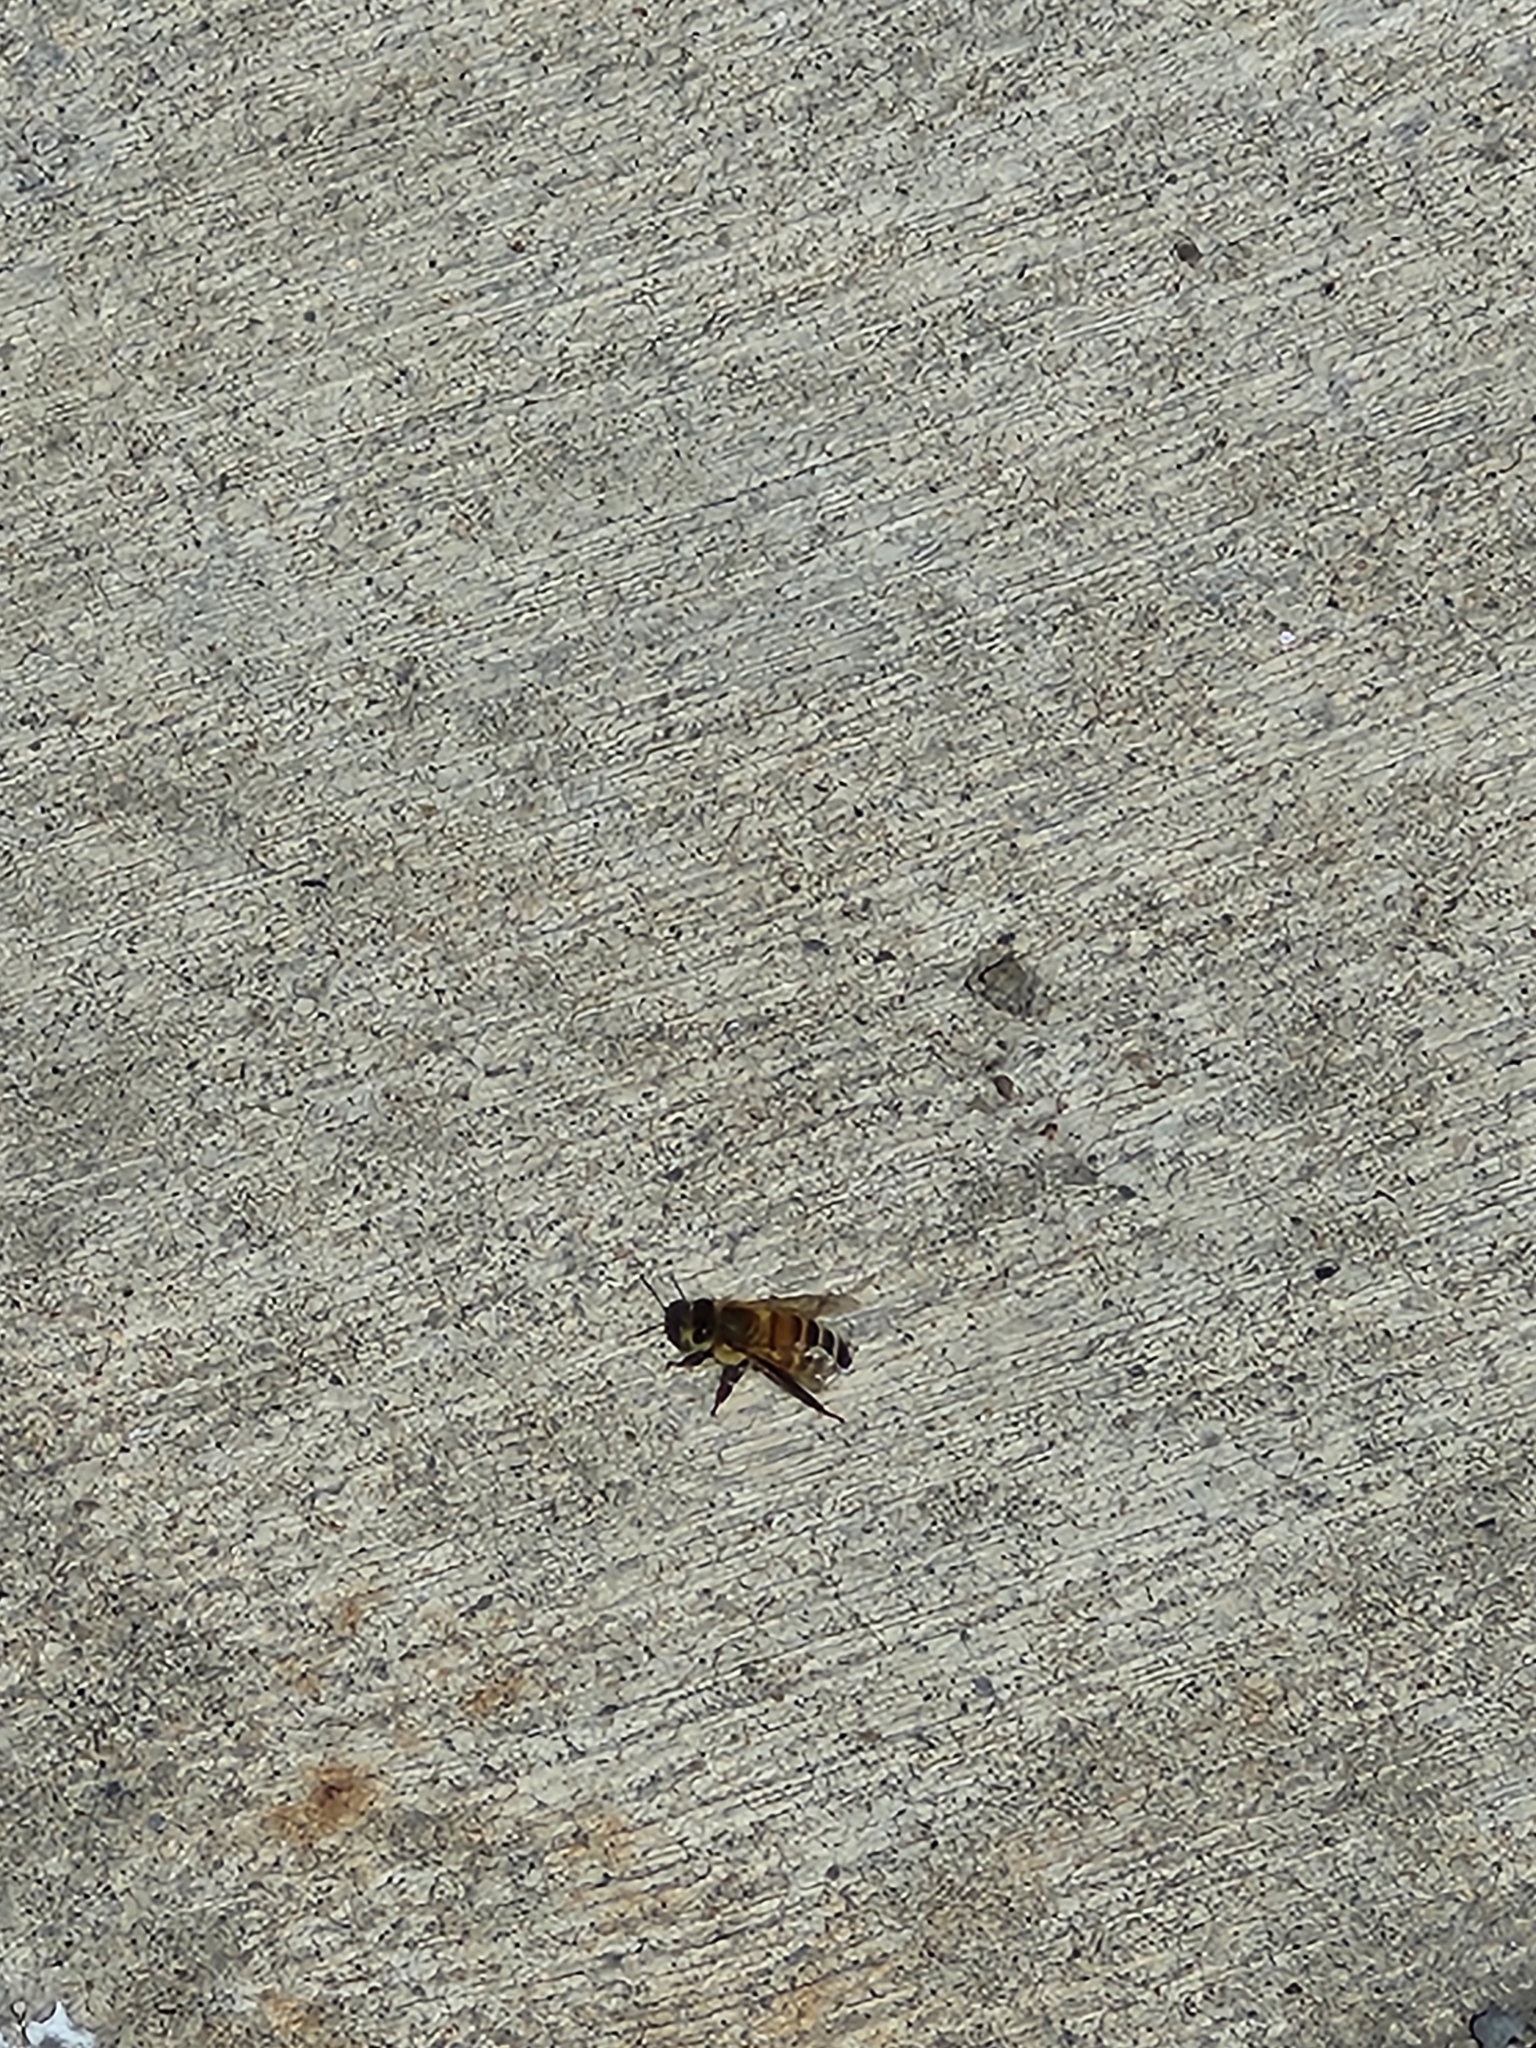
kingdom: Animalia
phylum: Arthropoda
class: Insecta
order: Hymenoptera
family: Apidae
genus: Apis
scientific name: Apis mellifera
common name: Honey bee
